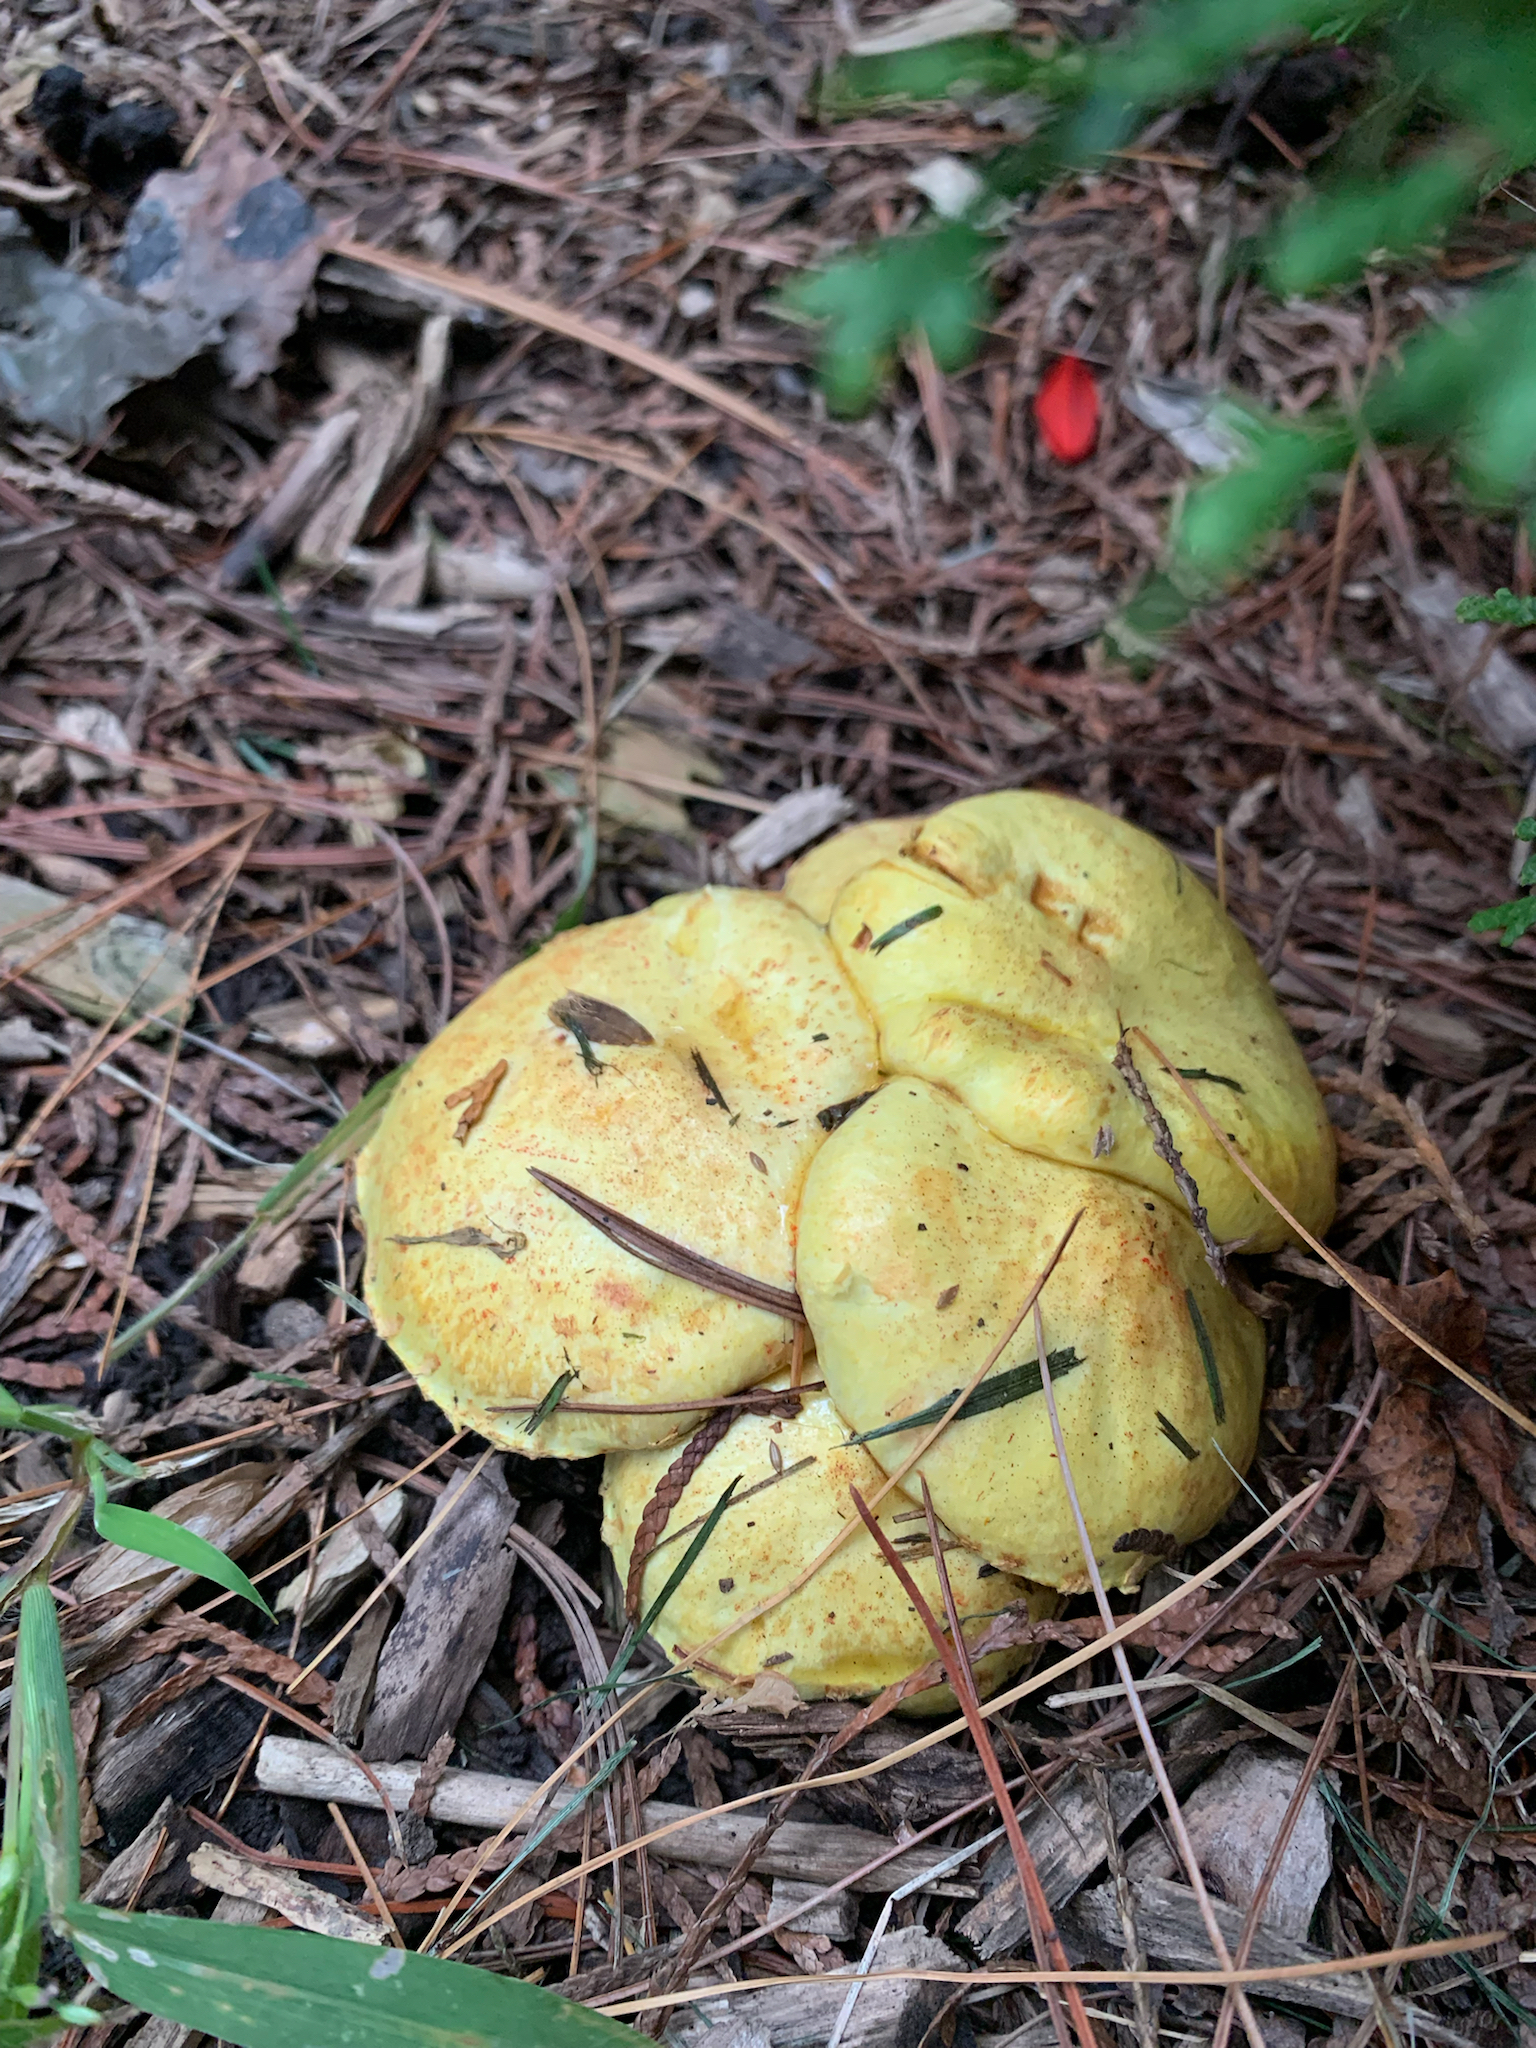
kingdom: Fungi
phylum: Basidiomycota
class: Agaricomycetes
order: Boletales
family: Suillaceae
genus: Suillus
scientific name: Suillus americanus
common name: Chicken fat mushroom
